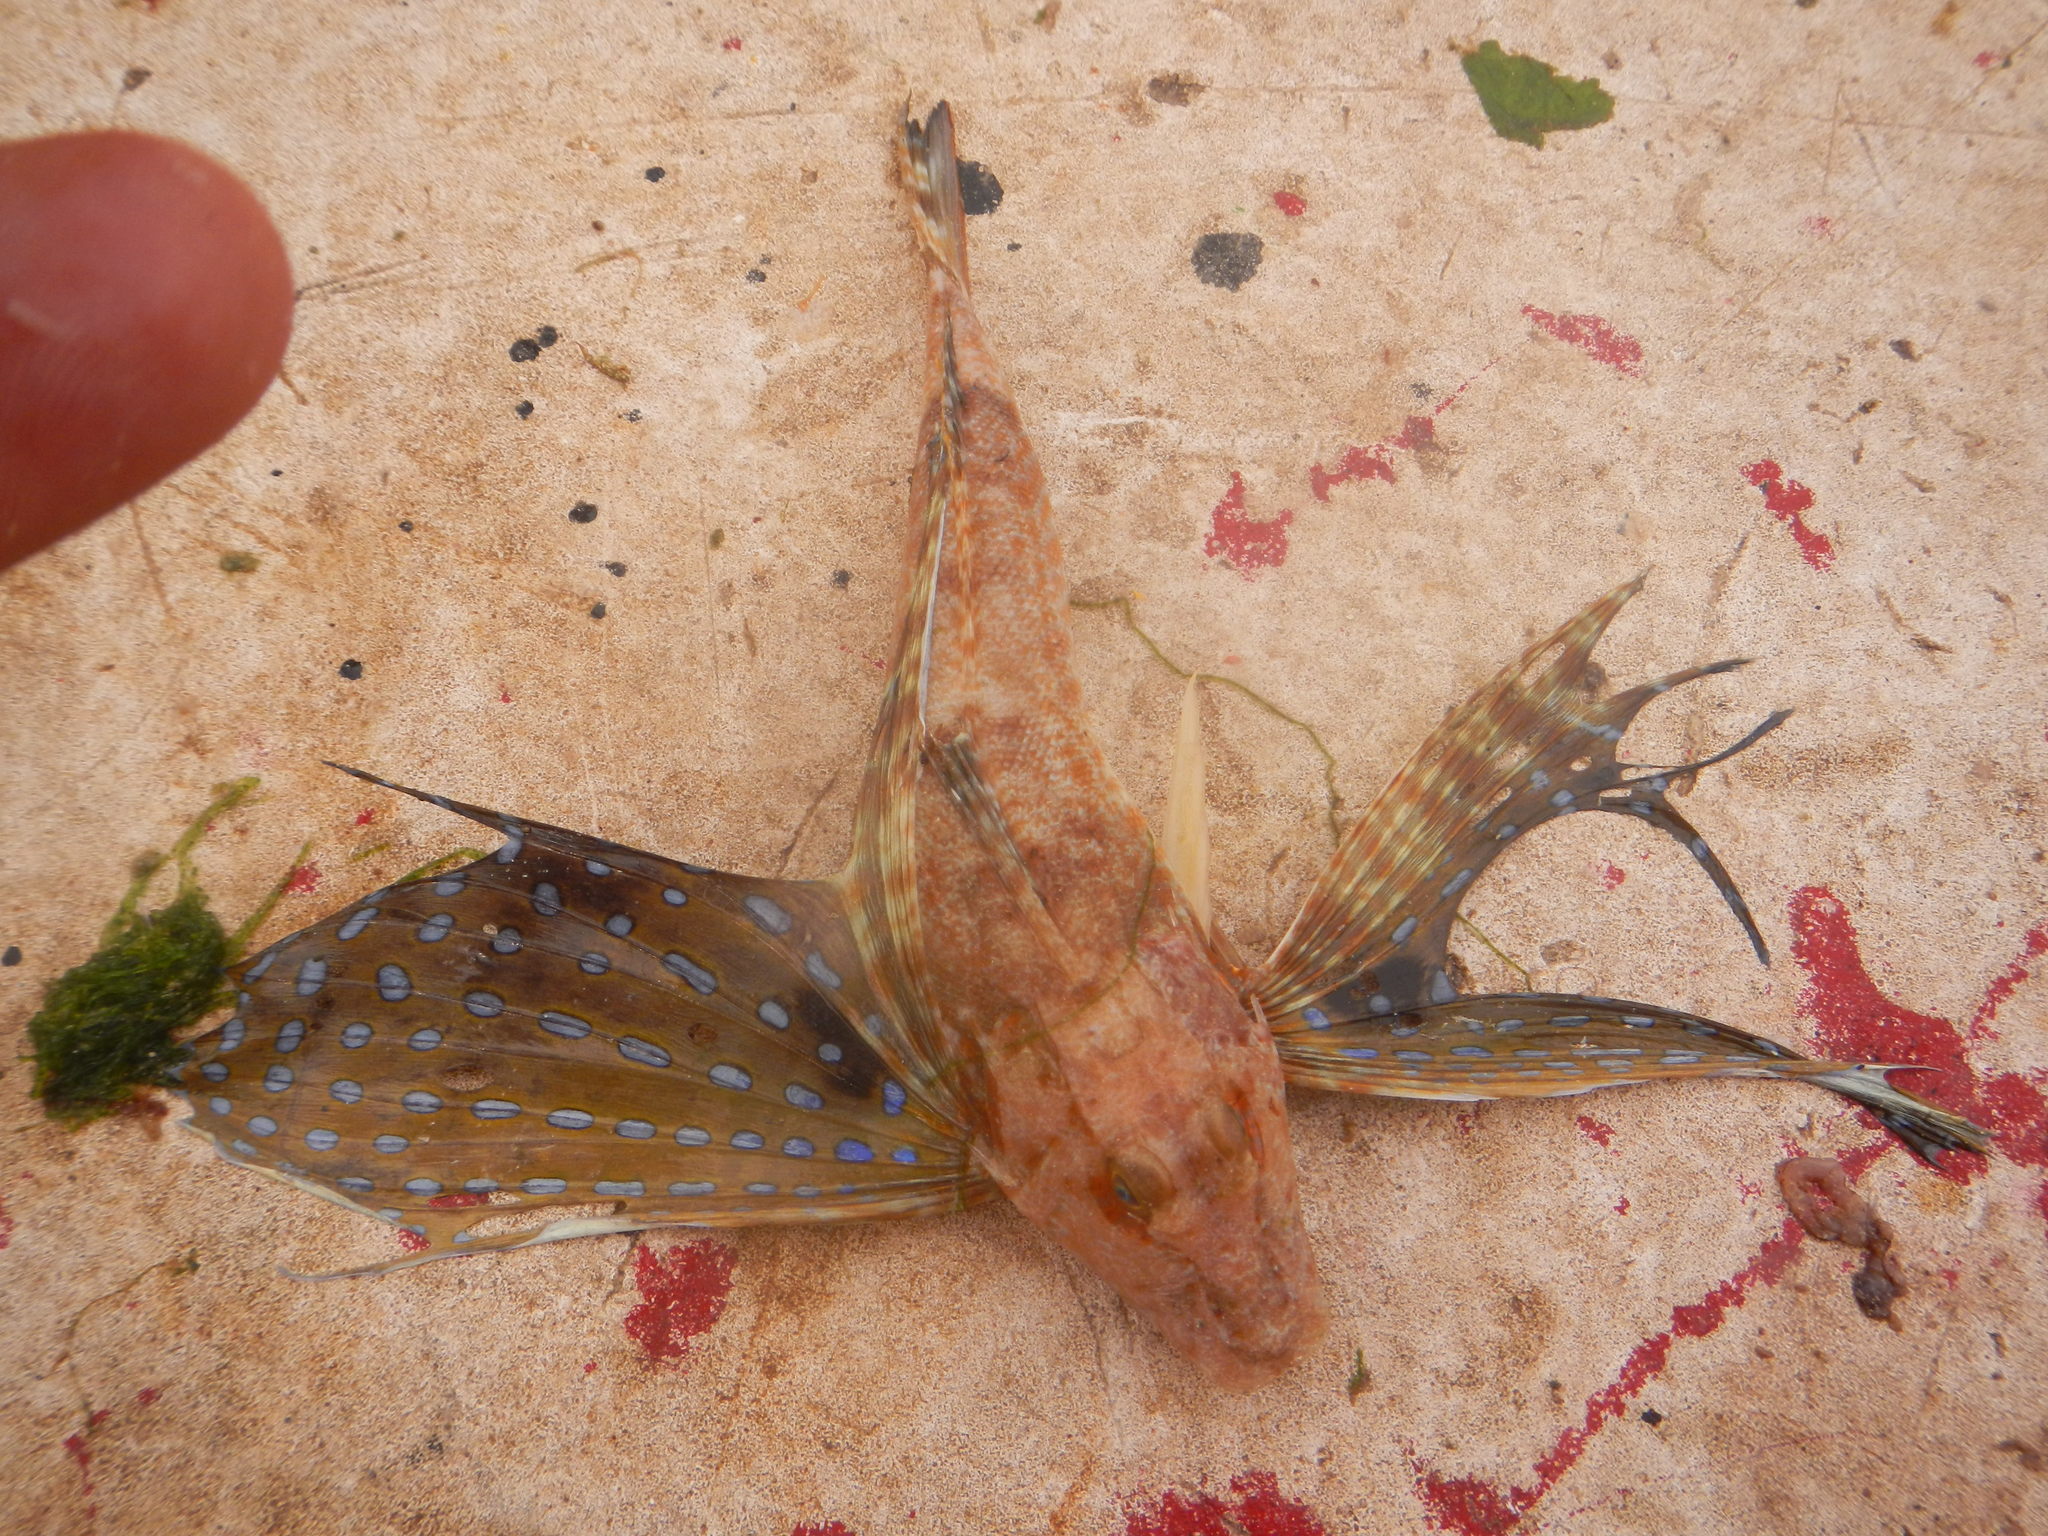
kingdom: Animalia
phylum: Chordata
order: Scorpaeniformes
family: Triglidae
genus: Prionotus
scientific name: Prionotus roseus
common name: Bluespotted searobin
